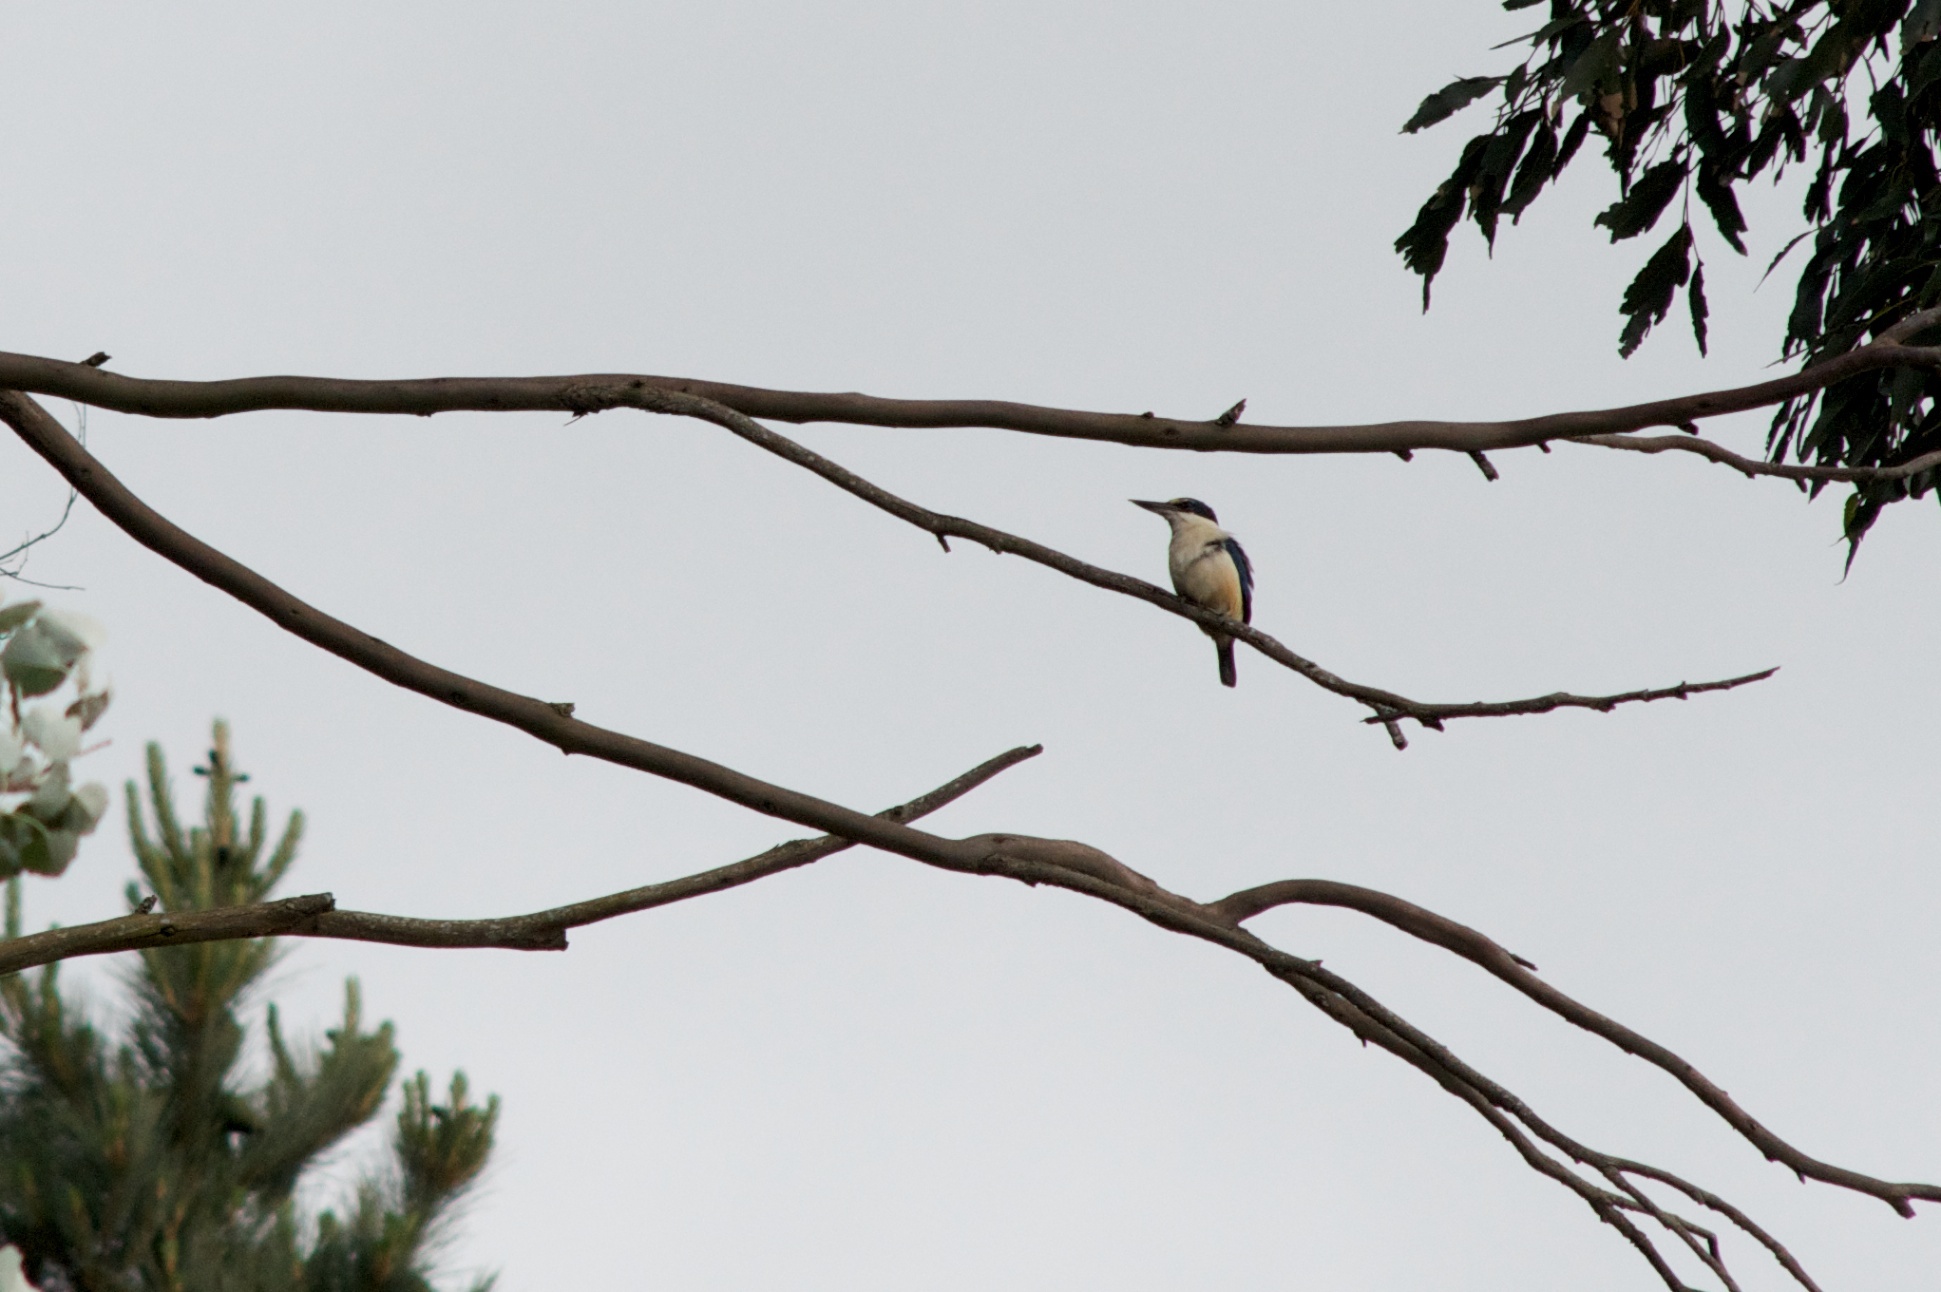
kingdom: Animalia
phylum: Chordata
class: Aves
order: Coraciiformes
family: Alcedinidae
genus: Todiramphus
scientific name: Todiramphus sanctus
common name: Sacred kingfisher
